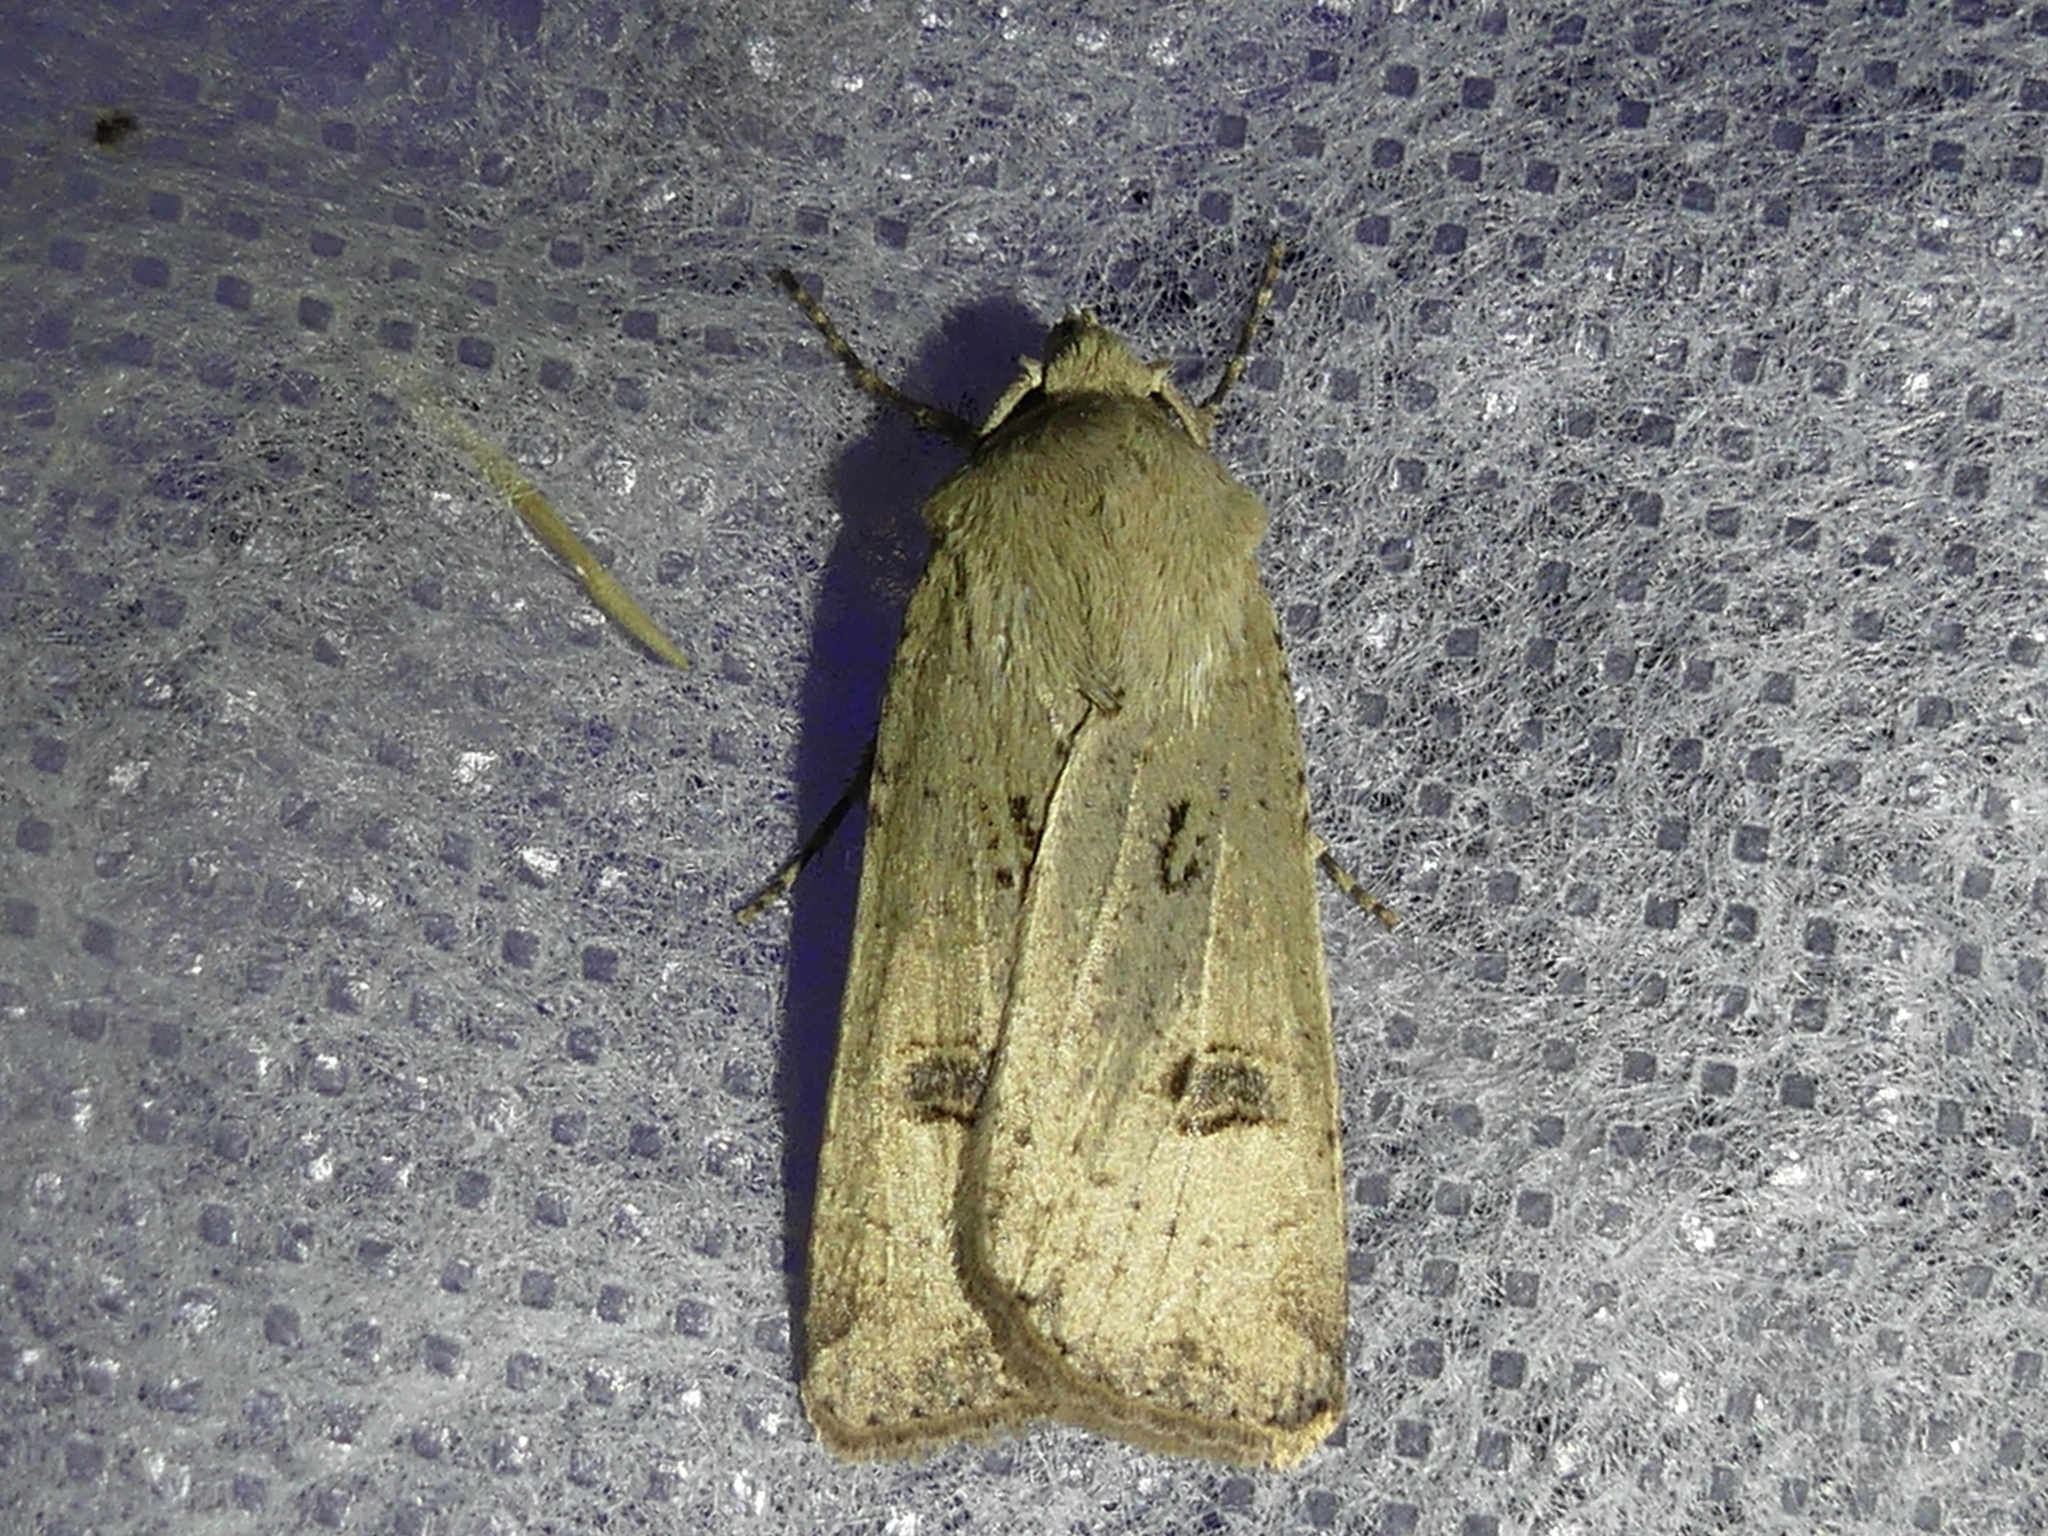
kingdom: Animalia
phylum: Arthropoda
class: Insecta
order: Lepidoptera
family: Noctuidae
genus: Agrotis
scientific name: Agrotis trux
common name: Crescent dart
